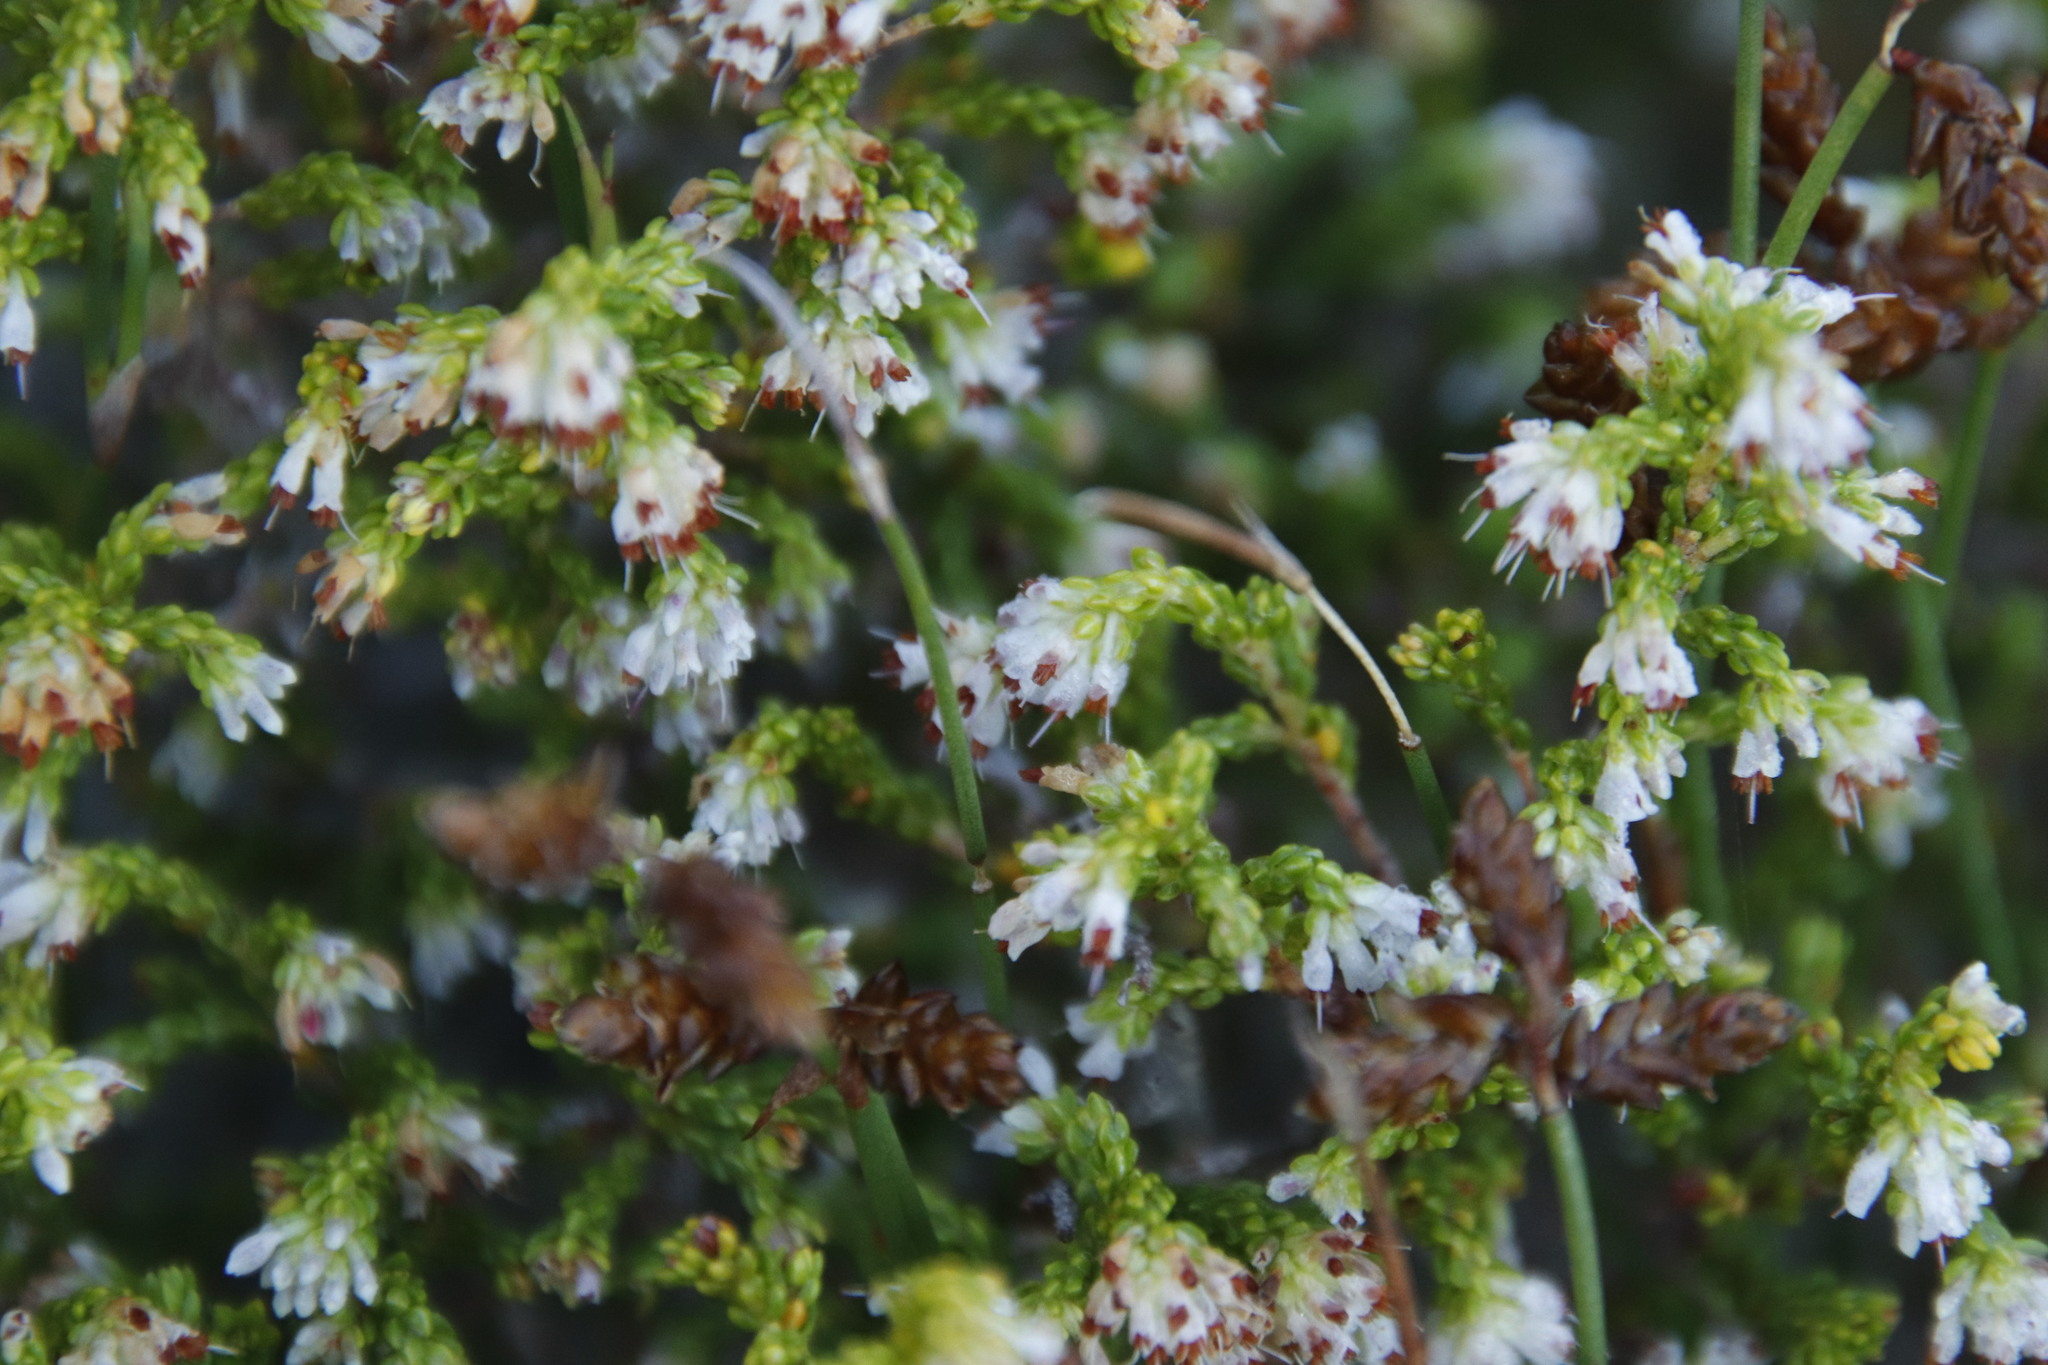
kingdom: Plantae
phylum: Tracheophyta
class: Magnoliopsida
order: Ericales
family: Ericaceae
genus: Erica
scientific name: Erica labialis
